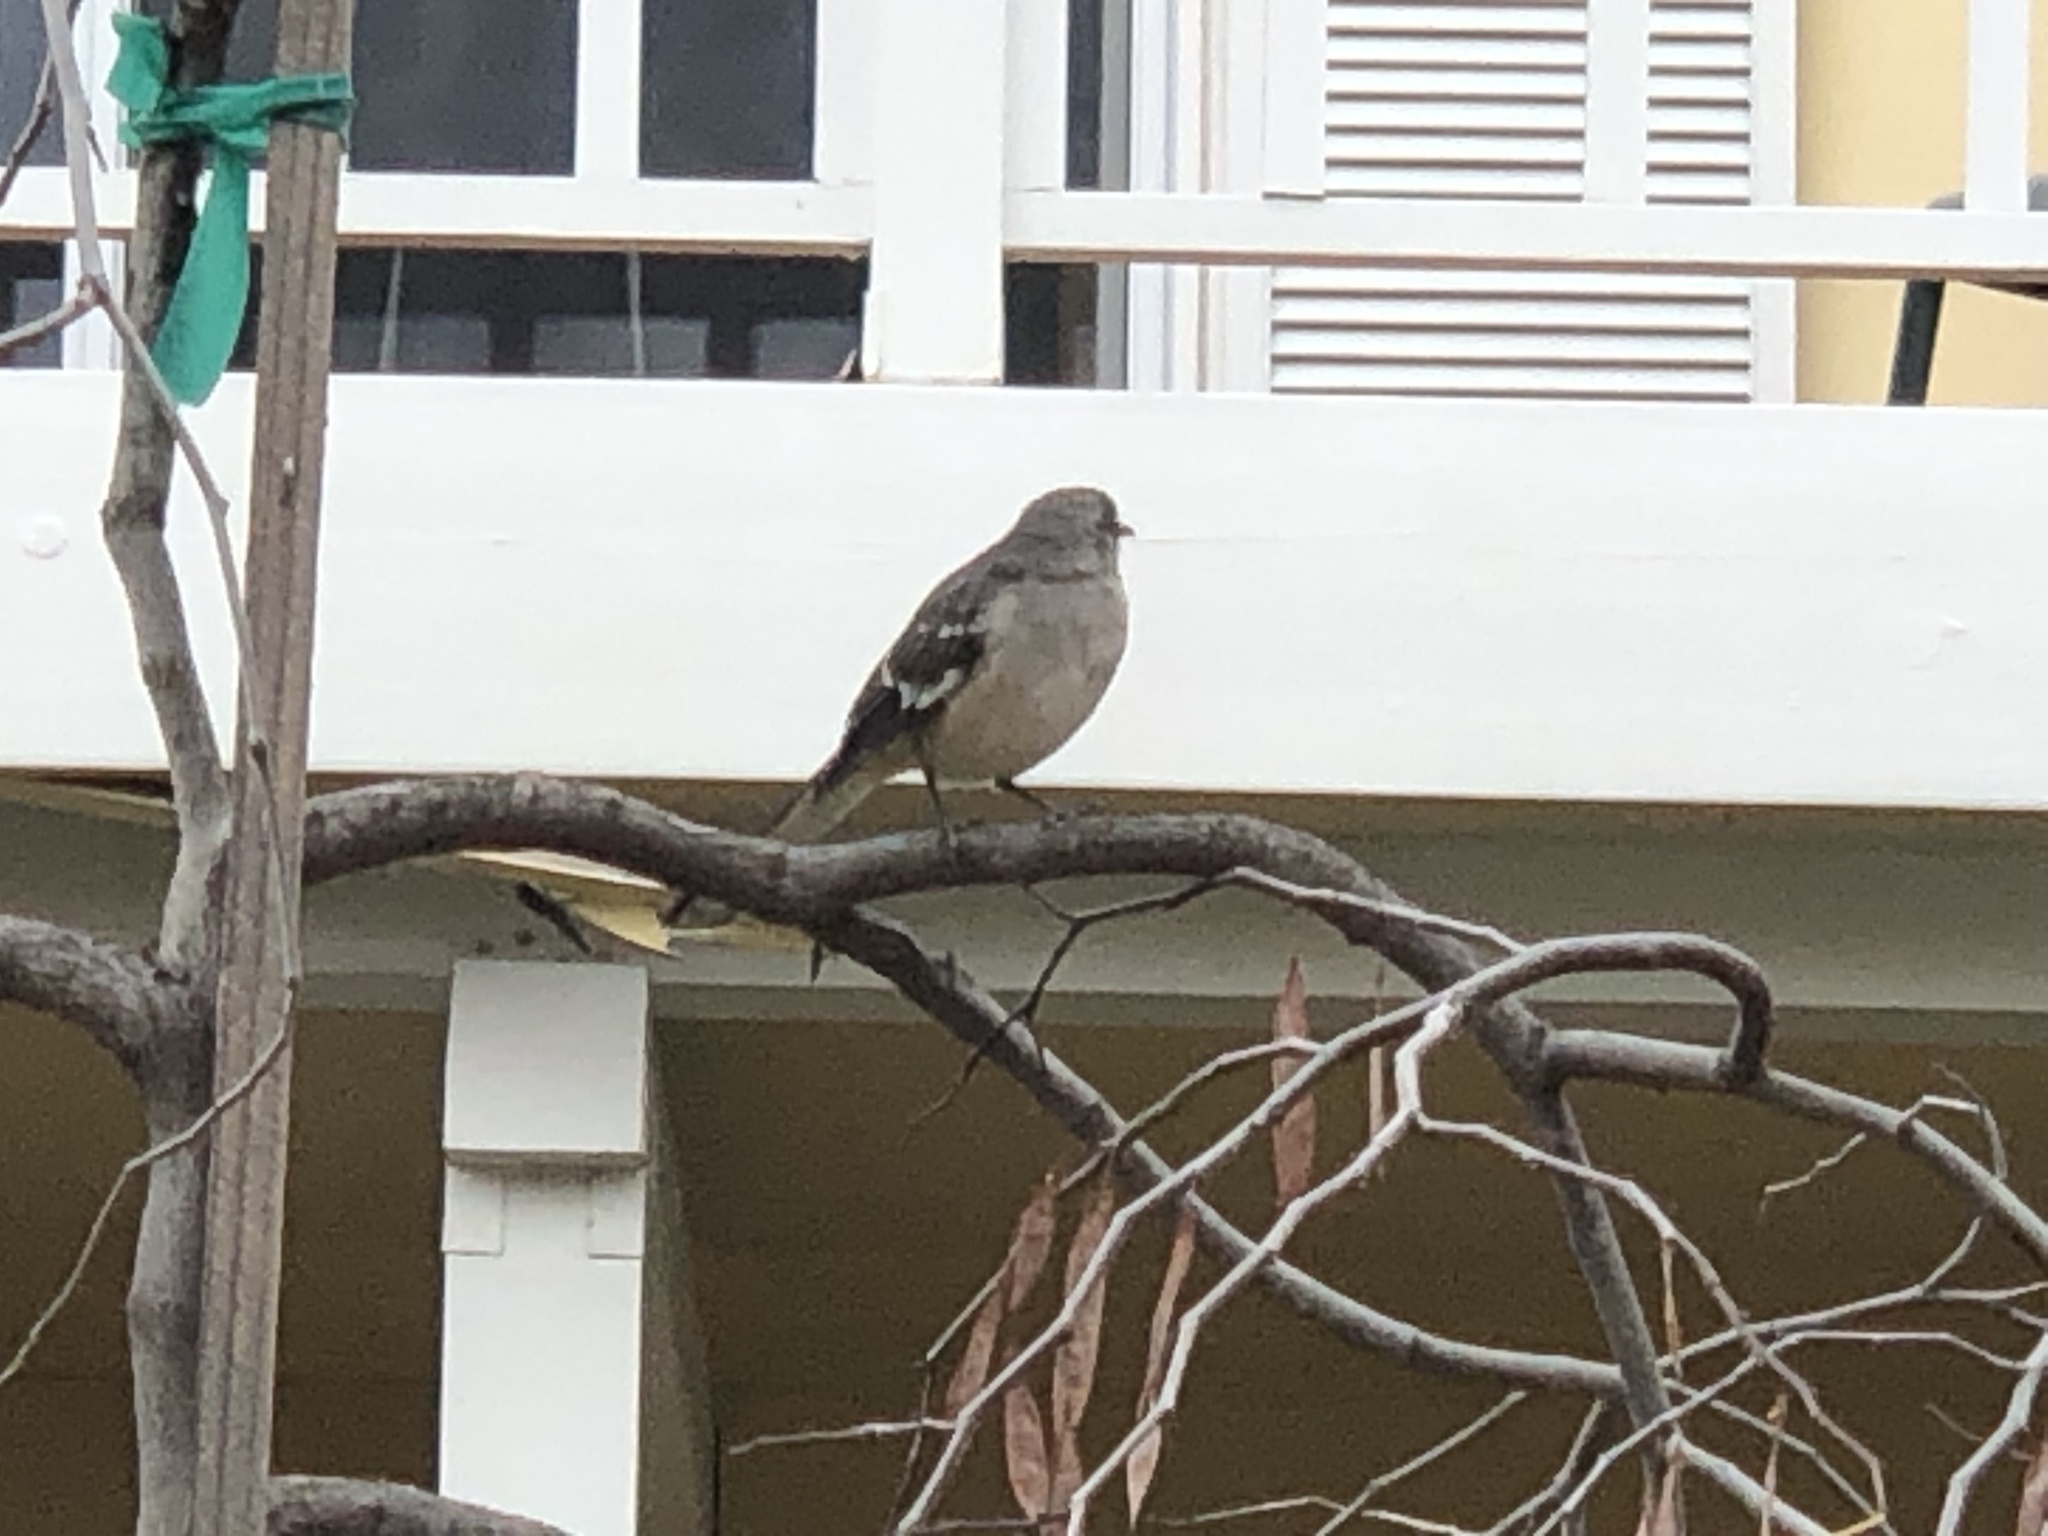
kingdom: Animalia
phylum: Chordata
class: Aves
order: Passeriformes
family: Mimidae
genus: Mimus
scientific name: Mimus polyglottos
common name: Northern mockingbird
